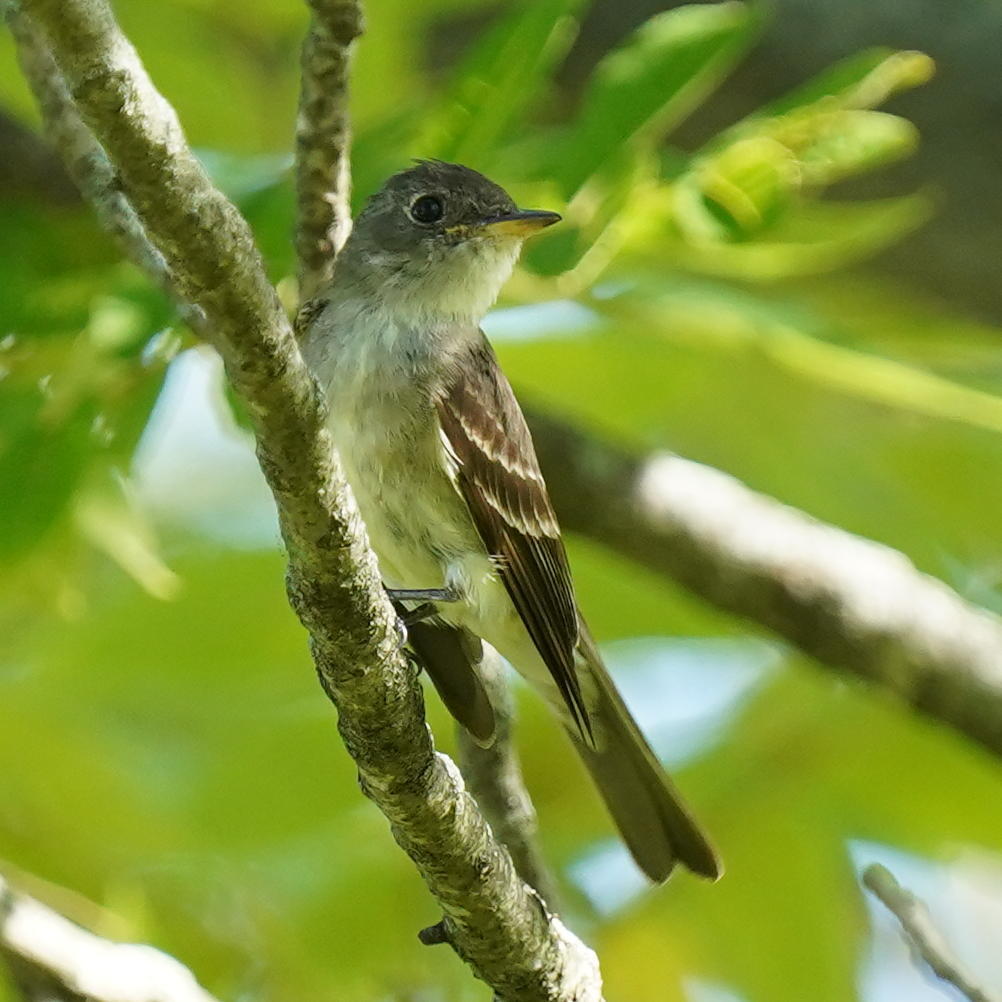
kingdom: Animalia
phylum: Chordata
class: Aves
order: Passeriformes
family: Tyrannidae
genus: Contopus
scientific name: Contopus virens
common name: Eastern wood-pewee
